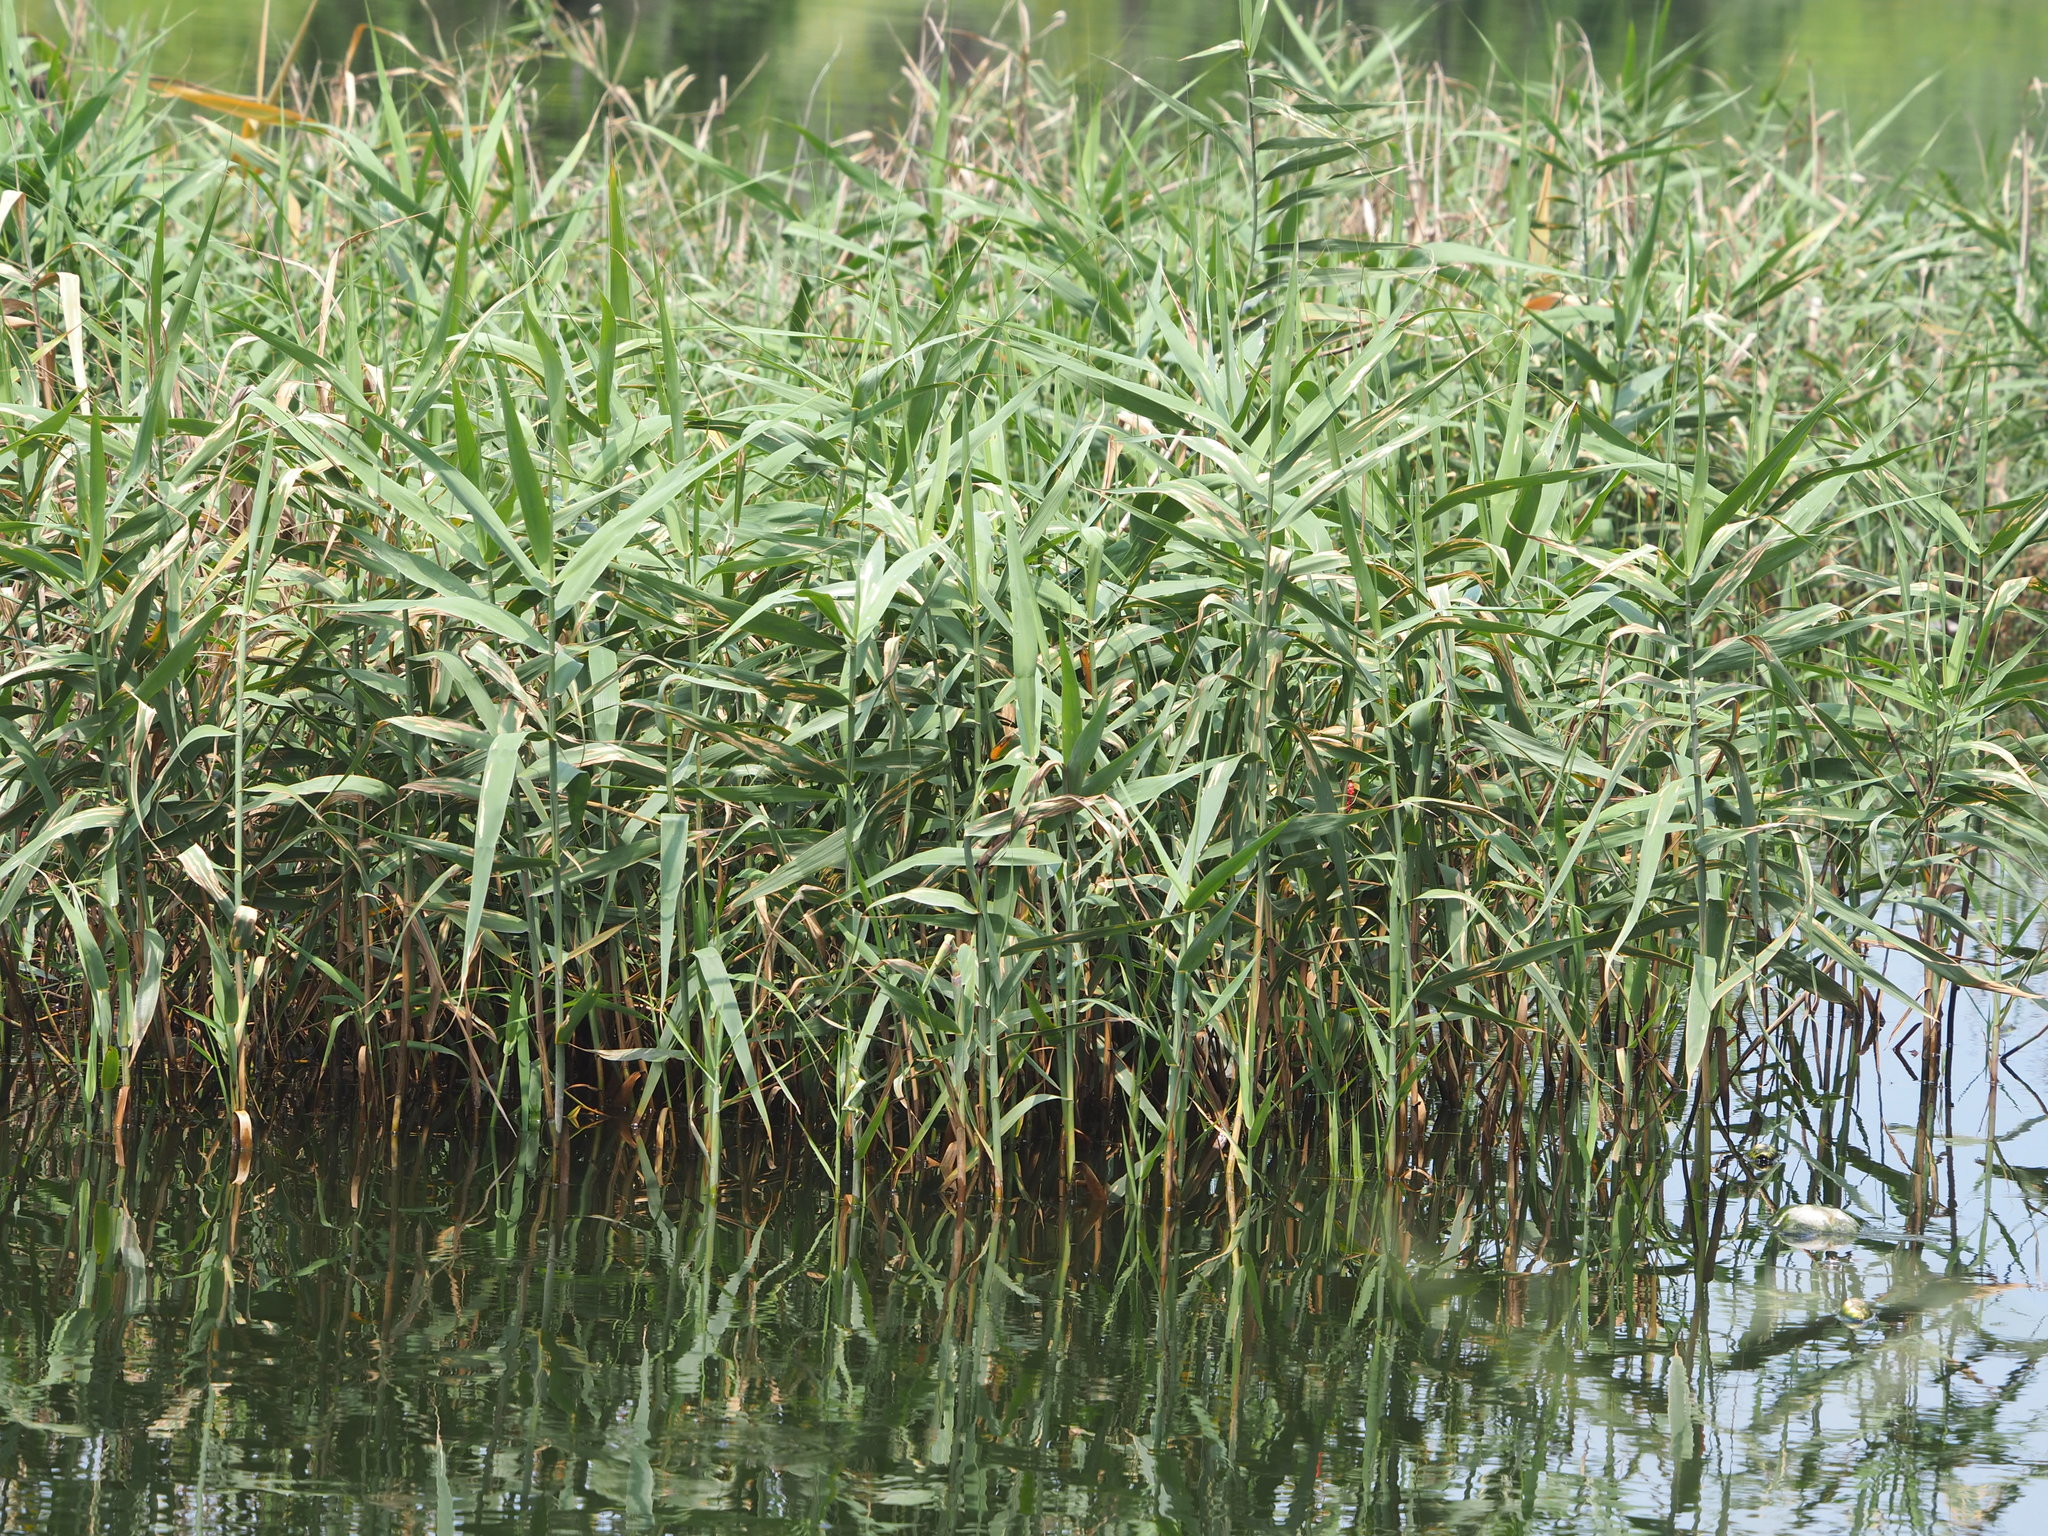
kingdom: Plantae
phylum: Tracheophyta
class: Liliopsida
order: Poales
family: Poaceae
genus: Phragmites
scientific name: Phragmites australis
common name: Common reed
